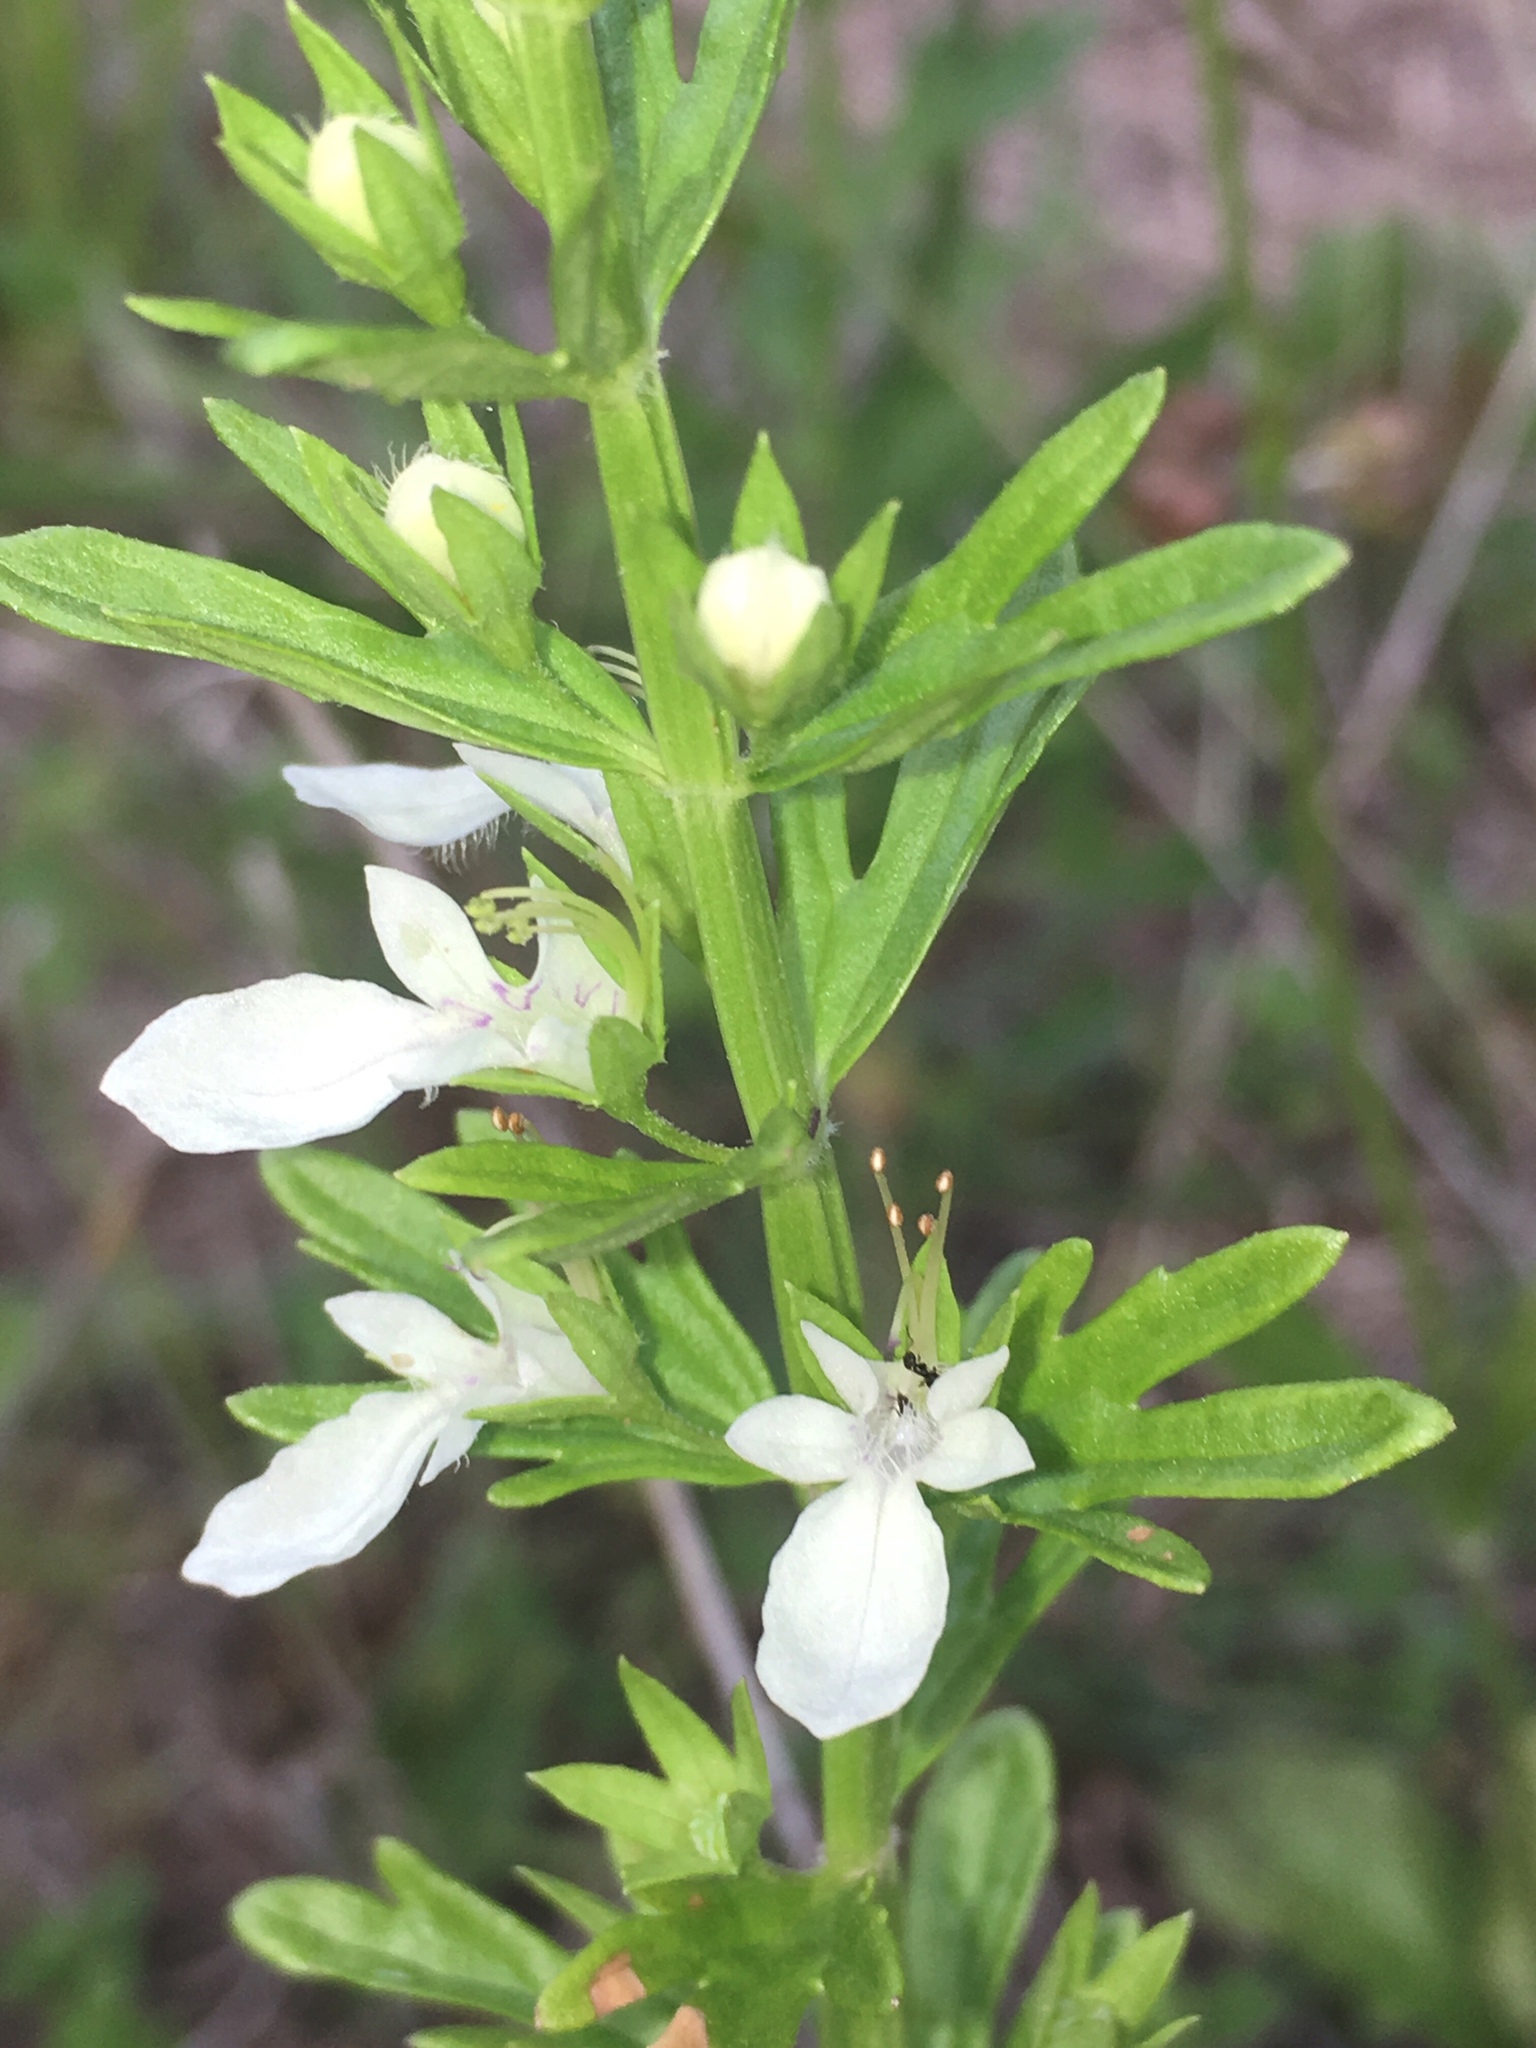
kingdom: Plantae
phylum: Tracheophyta
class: Magnoliopsida
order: Lamiales
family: Lamiaceae
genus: Teucrium
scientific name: Teucrium cubense
